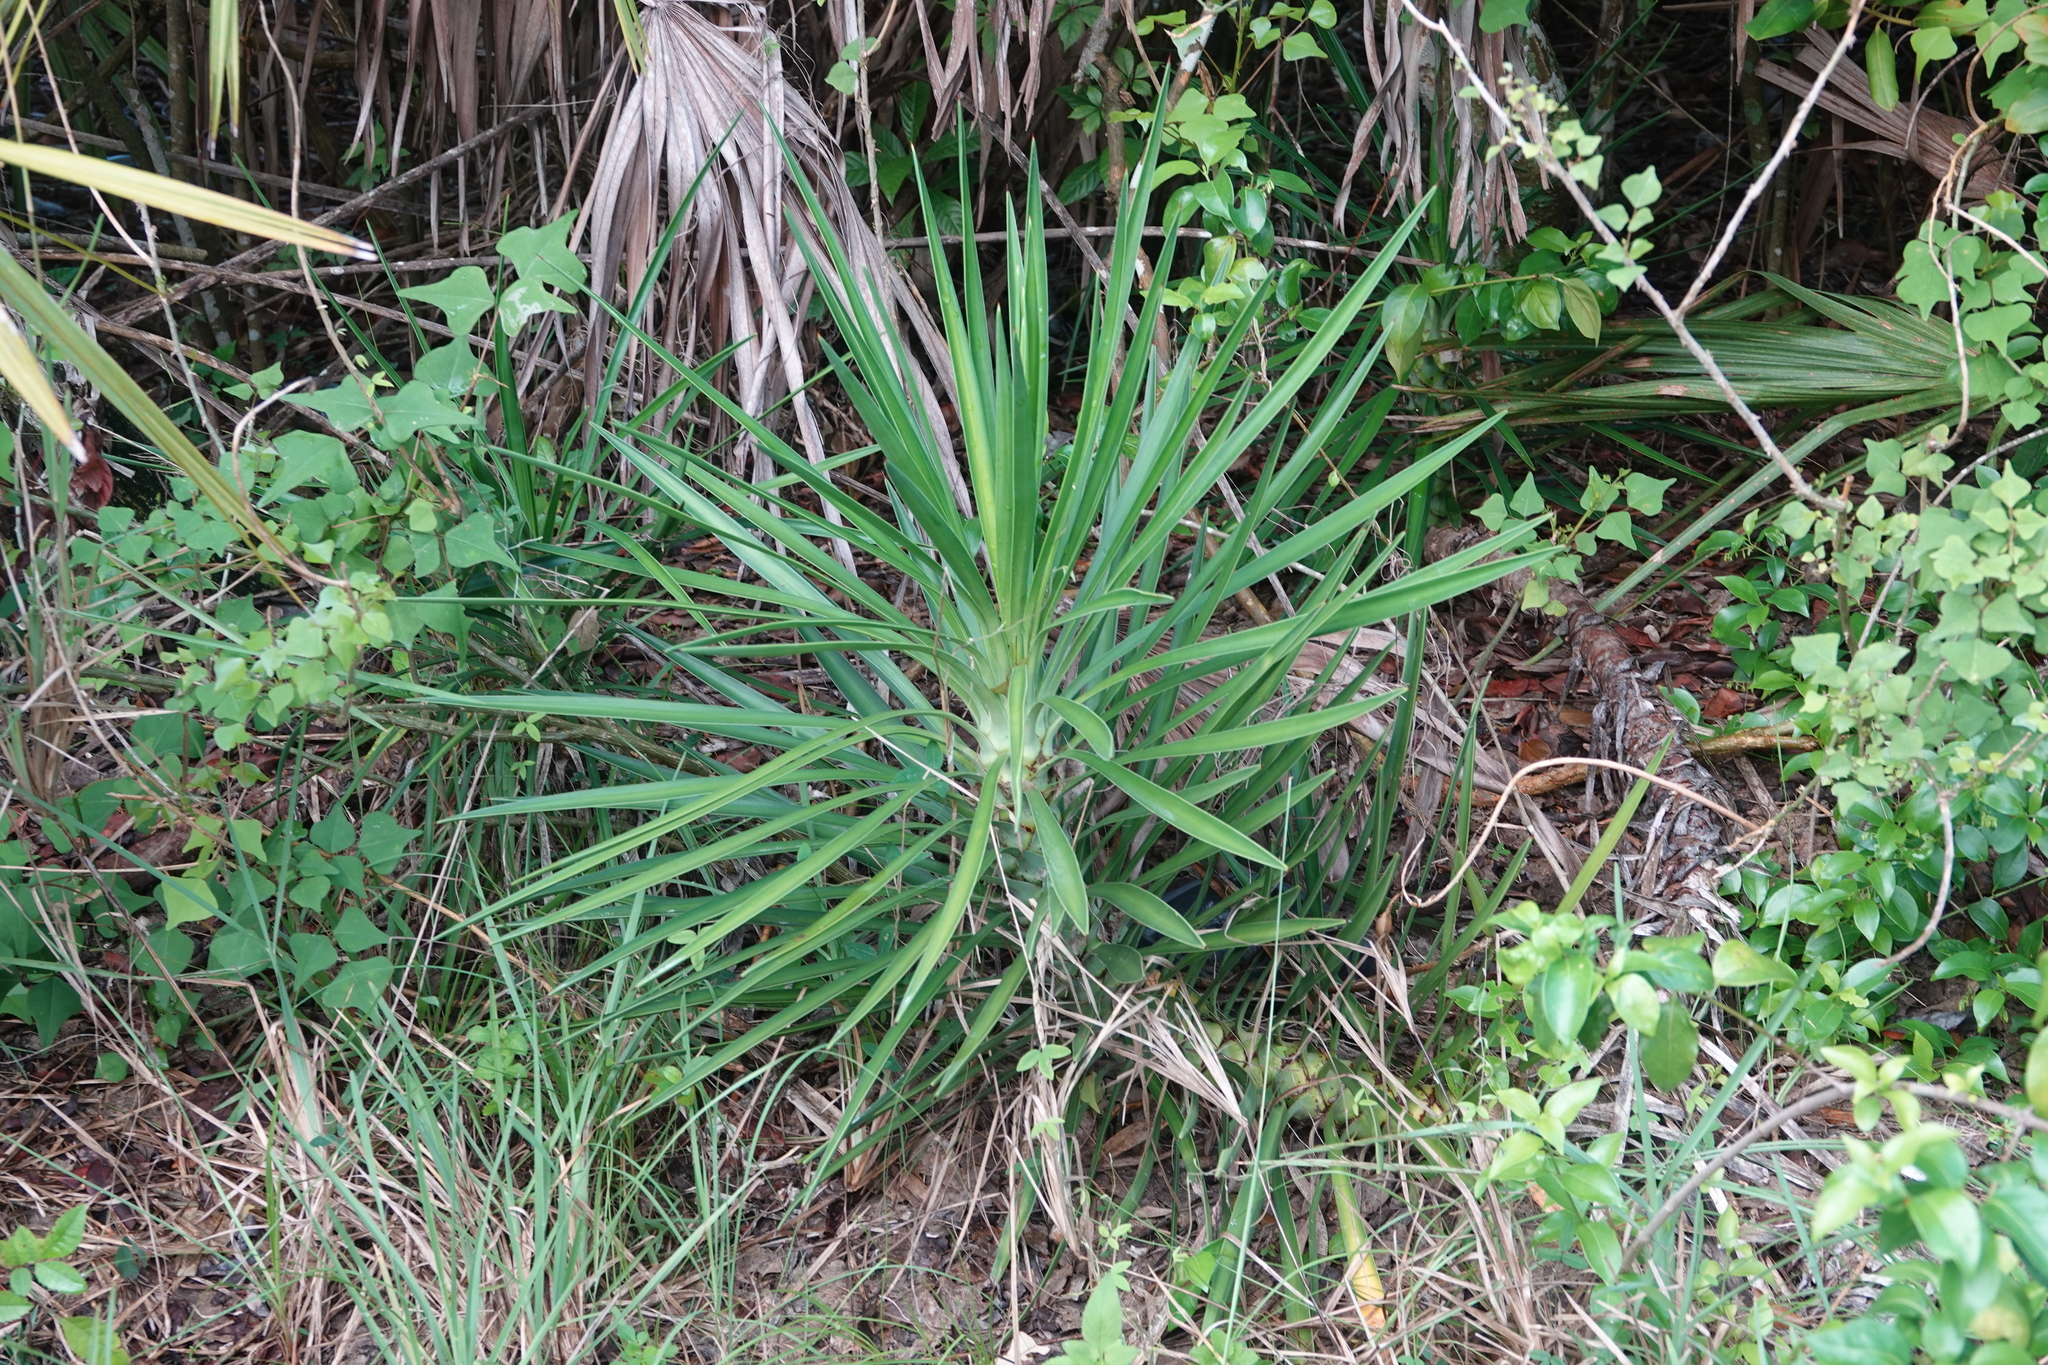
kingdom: Plantae
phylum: Tracheophyta
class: Liliopsida
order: Asparagales
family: Asparagaceae
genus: Yucca
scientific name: Yucca aloifolia
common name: Aloe yucca
